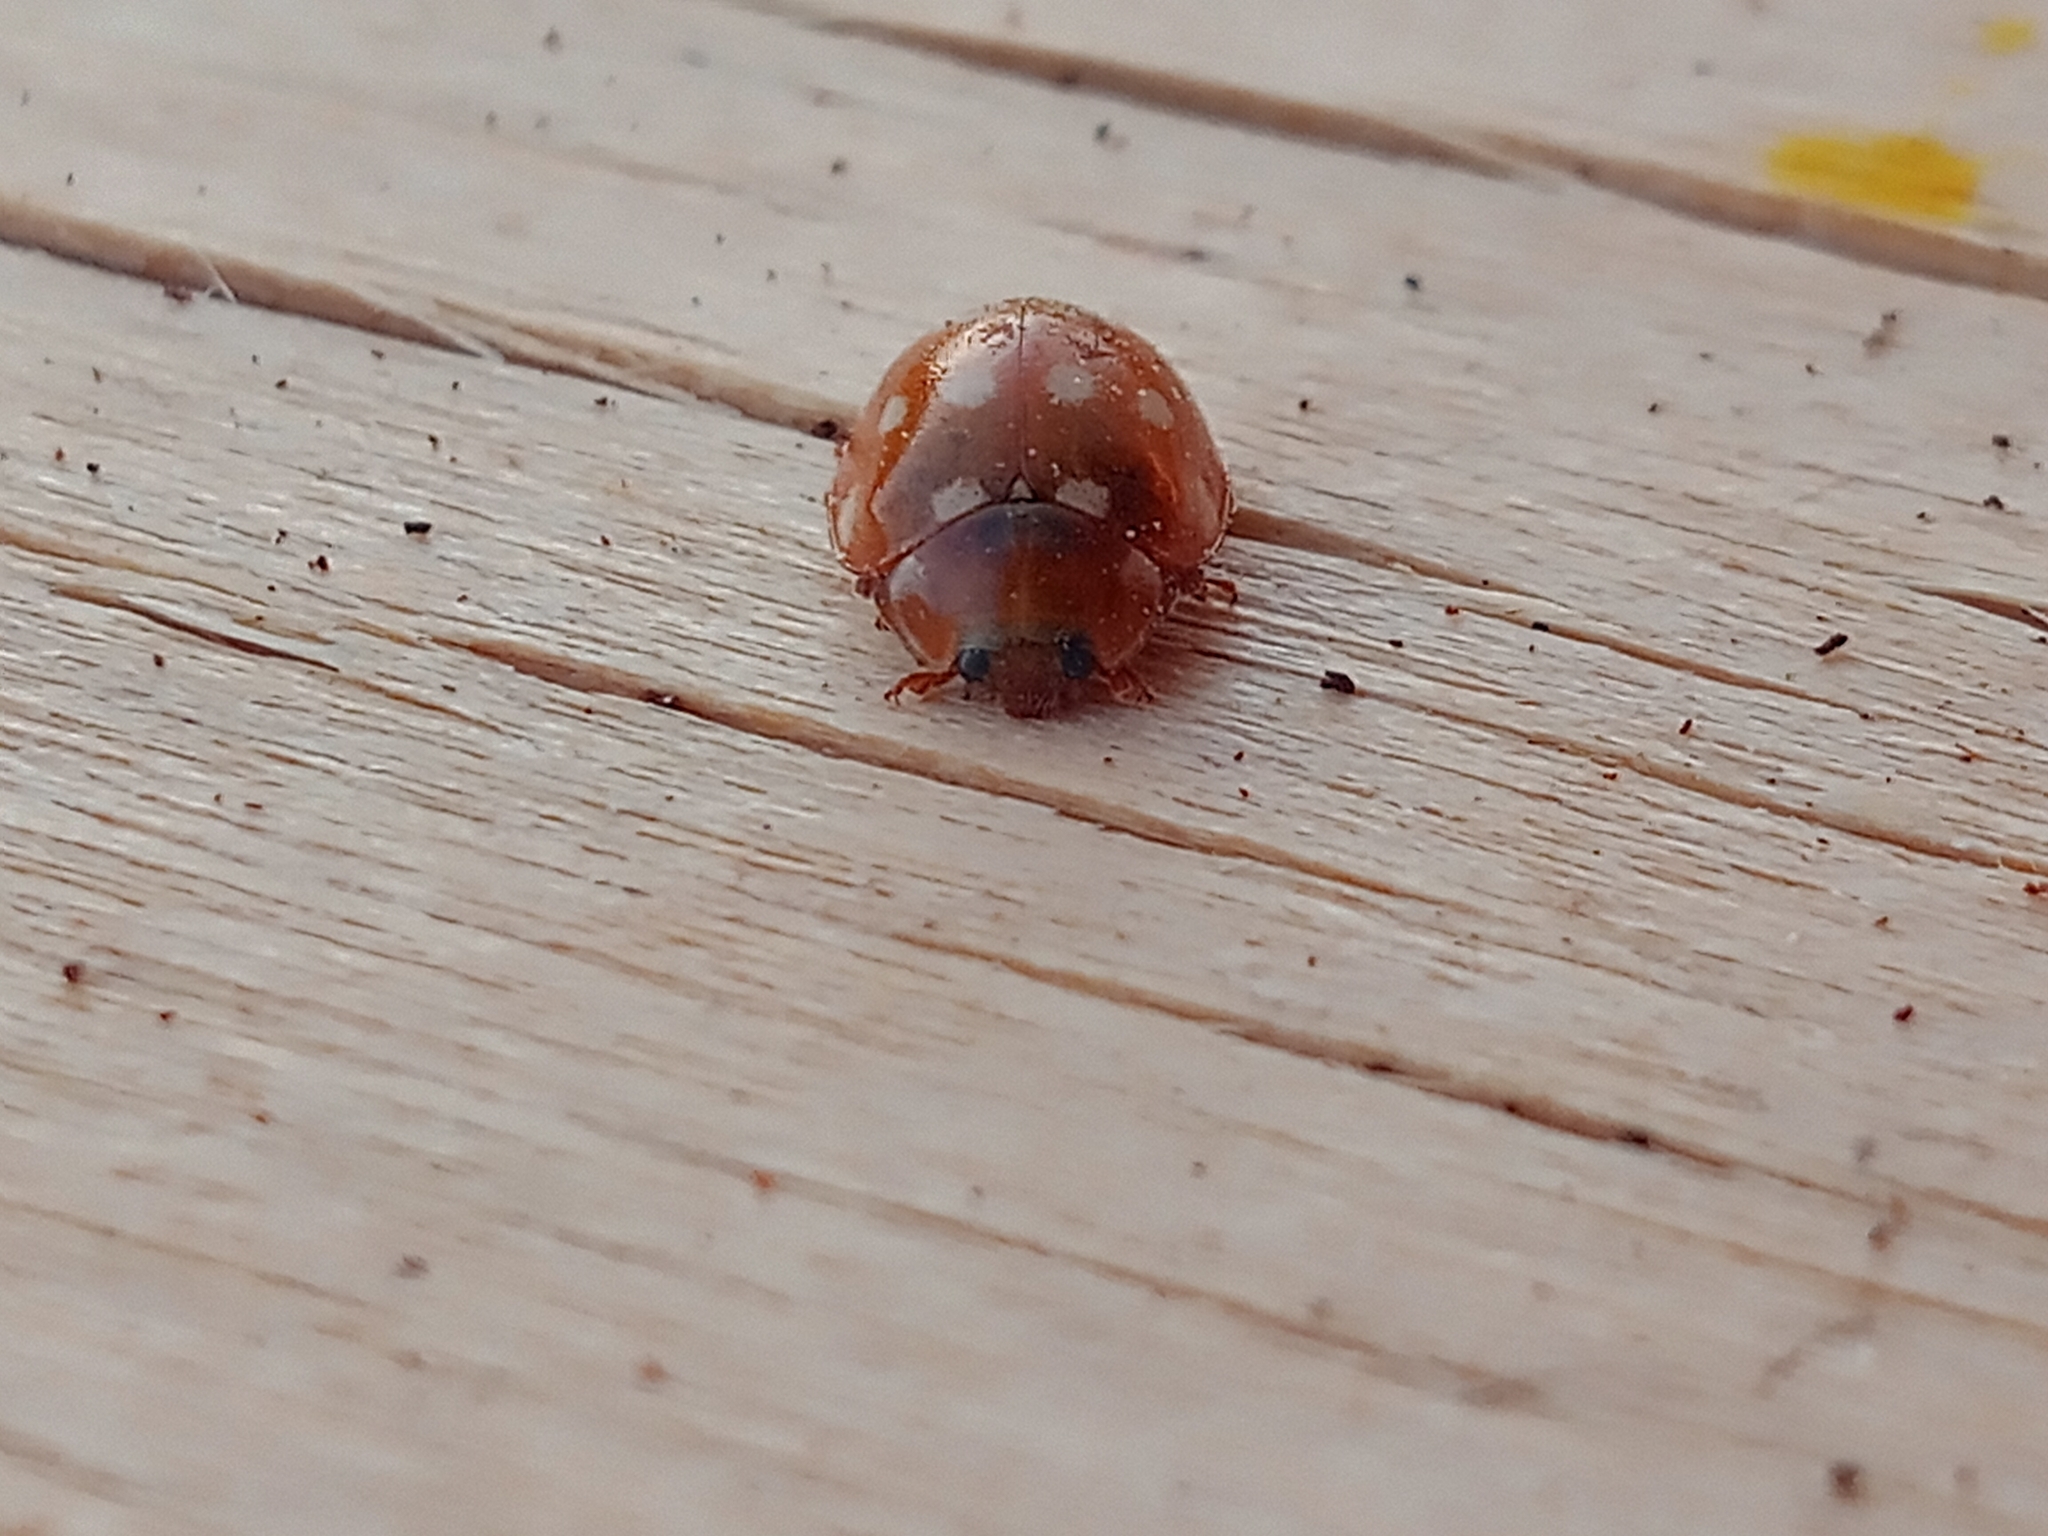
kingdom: Animalia
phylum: Arthropoda
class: Insecta
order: Coleoptera
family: Coccinellidae
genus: Calvia
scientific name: Calvia quatuordecimguttata
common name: Cream-spot ladybird
